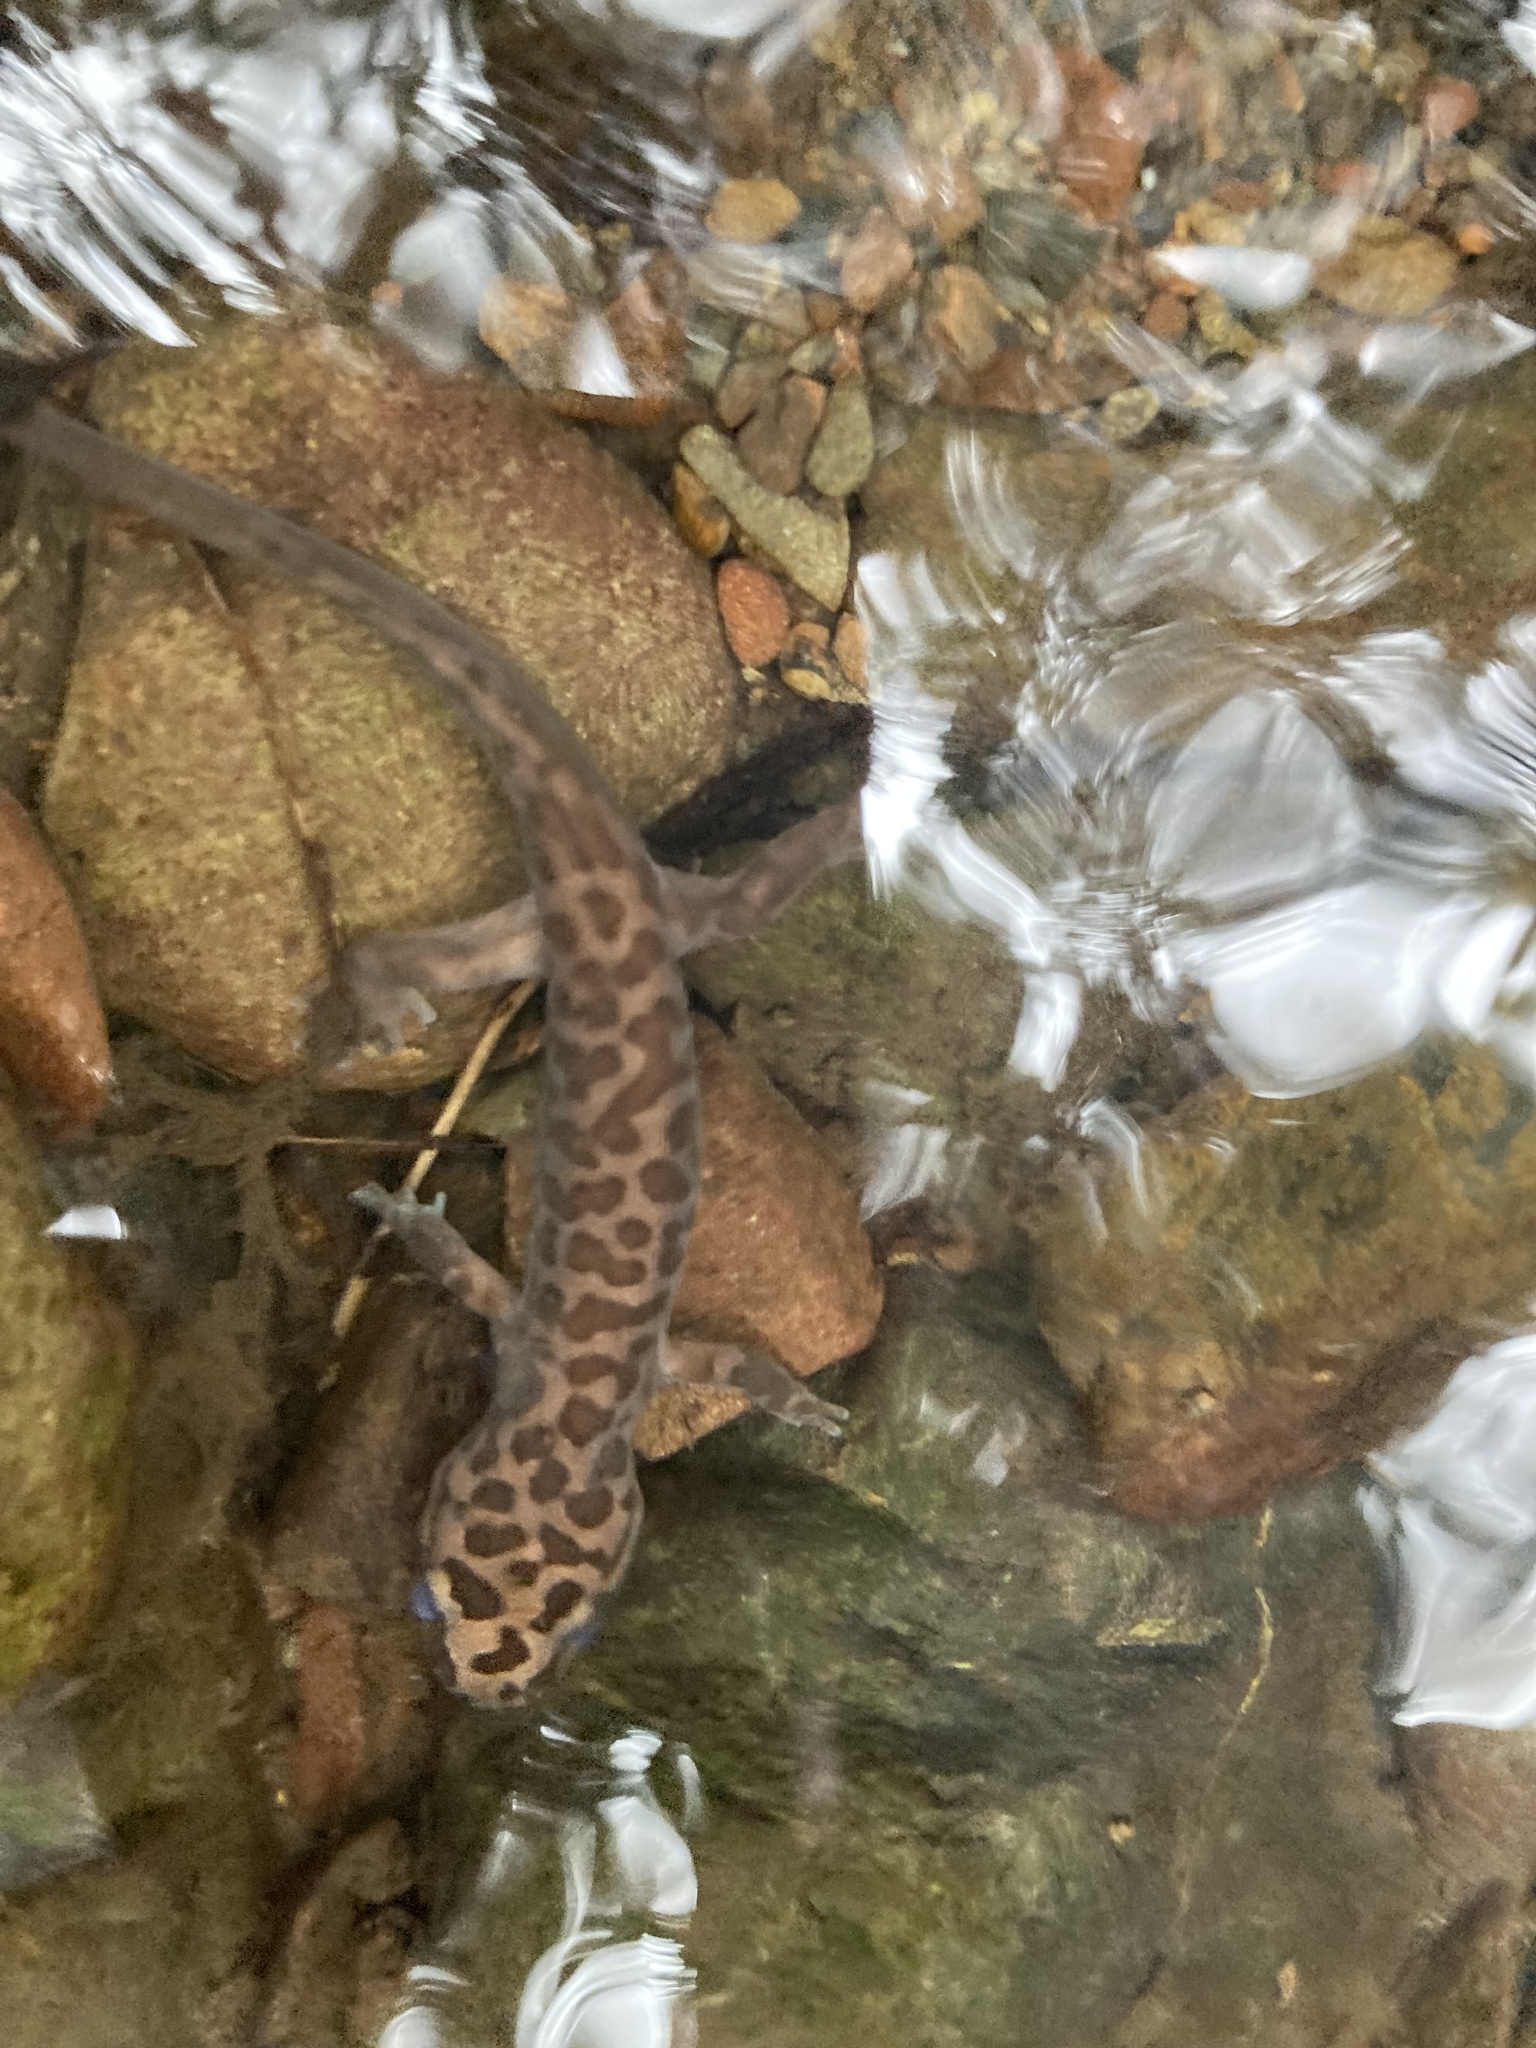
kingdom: Animalia
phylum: Chordata
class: Amphibia
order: Caudata
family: Ambystomatidae
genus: Dicamptodon
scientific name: Dicamptodon ensatus
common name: California giant salamander
